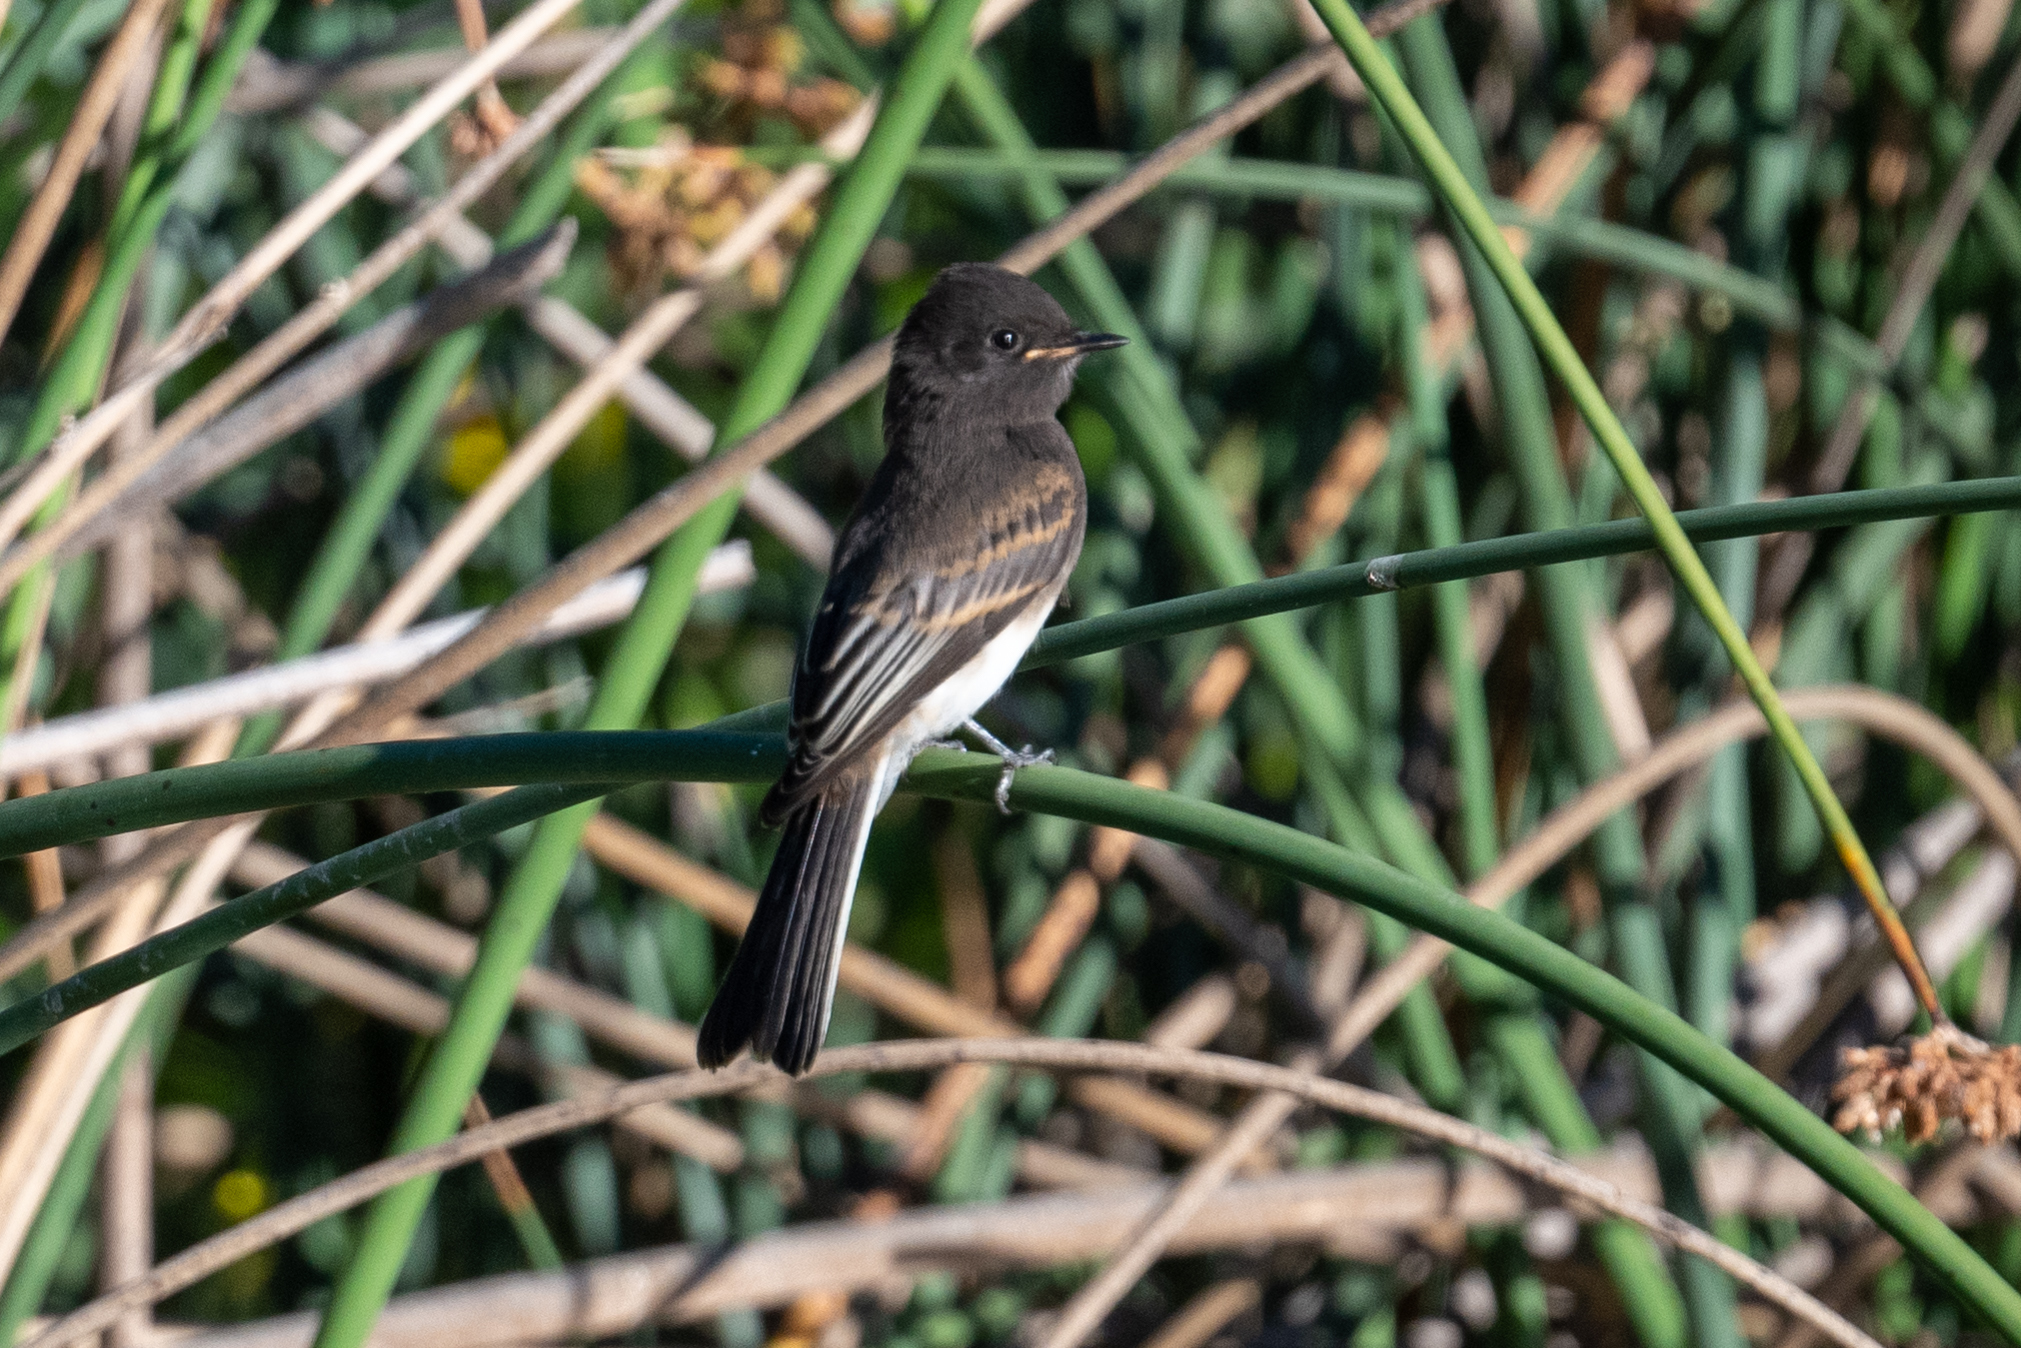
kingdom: Animalia
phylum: Chordata
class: Aves
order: Passeriformes
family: Tyrannidae
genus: Sayornis
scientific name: Sayornis nigricans
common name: Black phoebe
